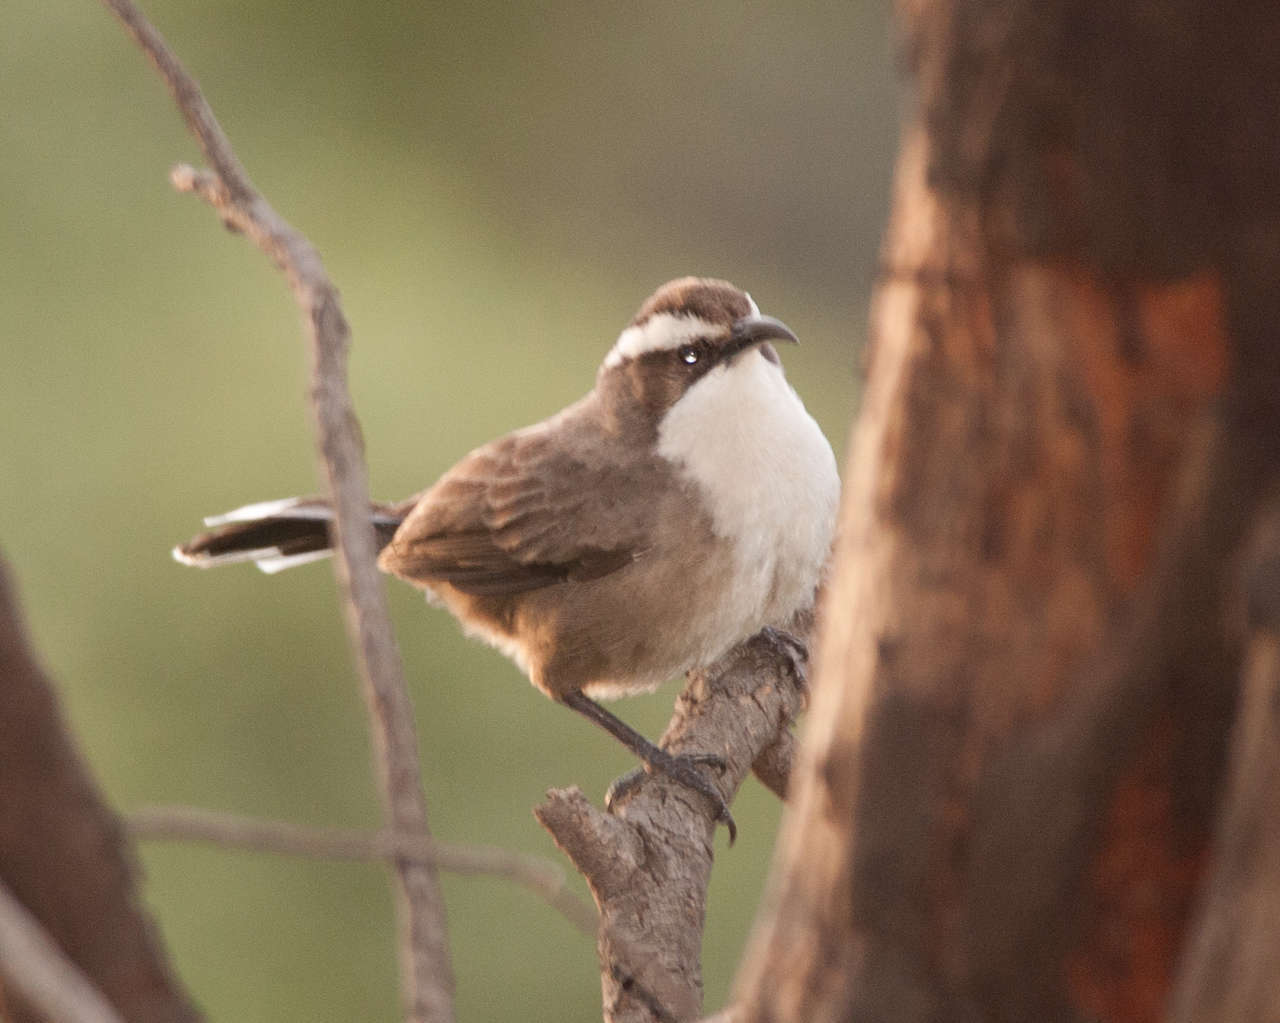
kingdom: Animalia
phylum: Chordata
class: Aves
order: Passeriformes
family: Pomatostomidae
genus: Pomatostomus
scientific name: Pomatostomus superciliosus
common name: White-browed babbler
